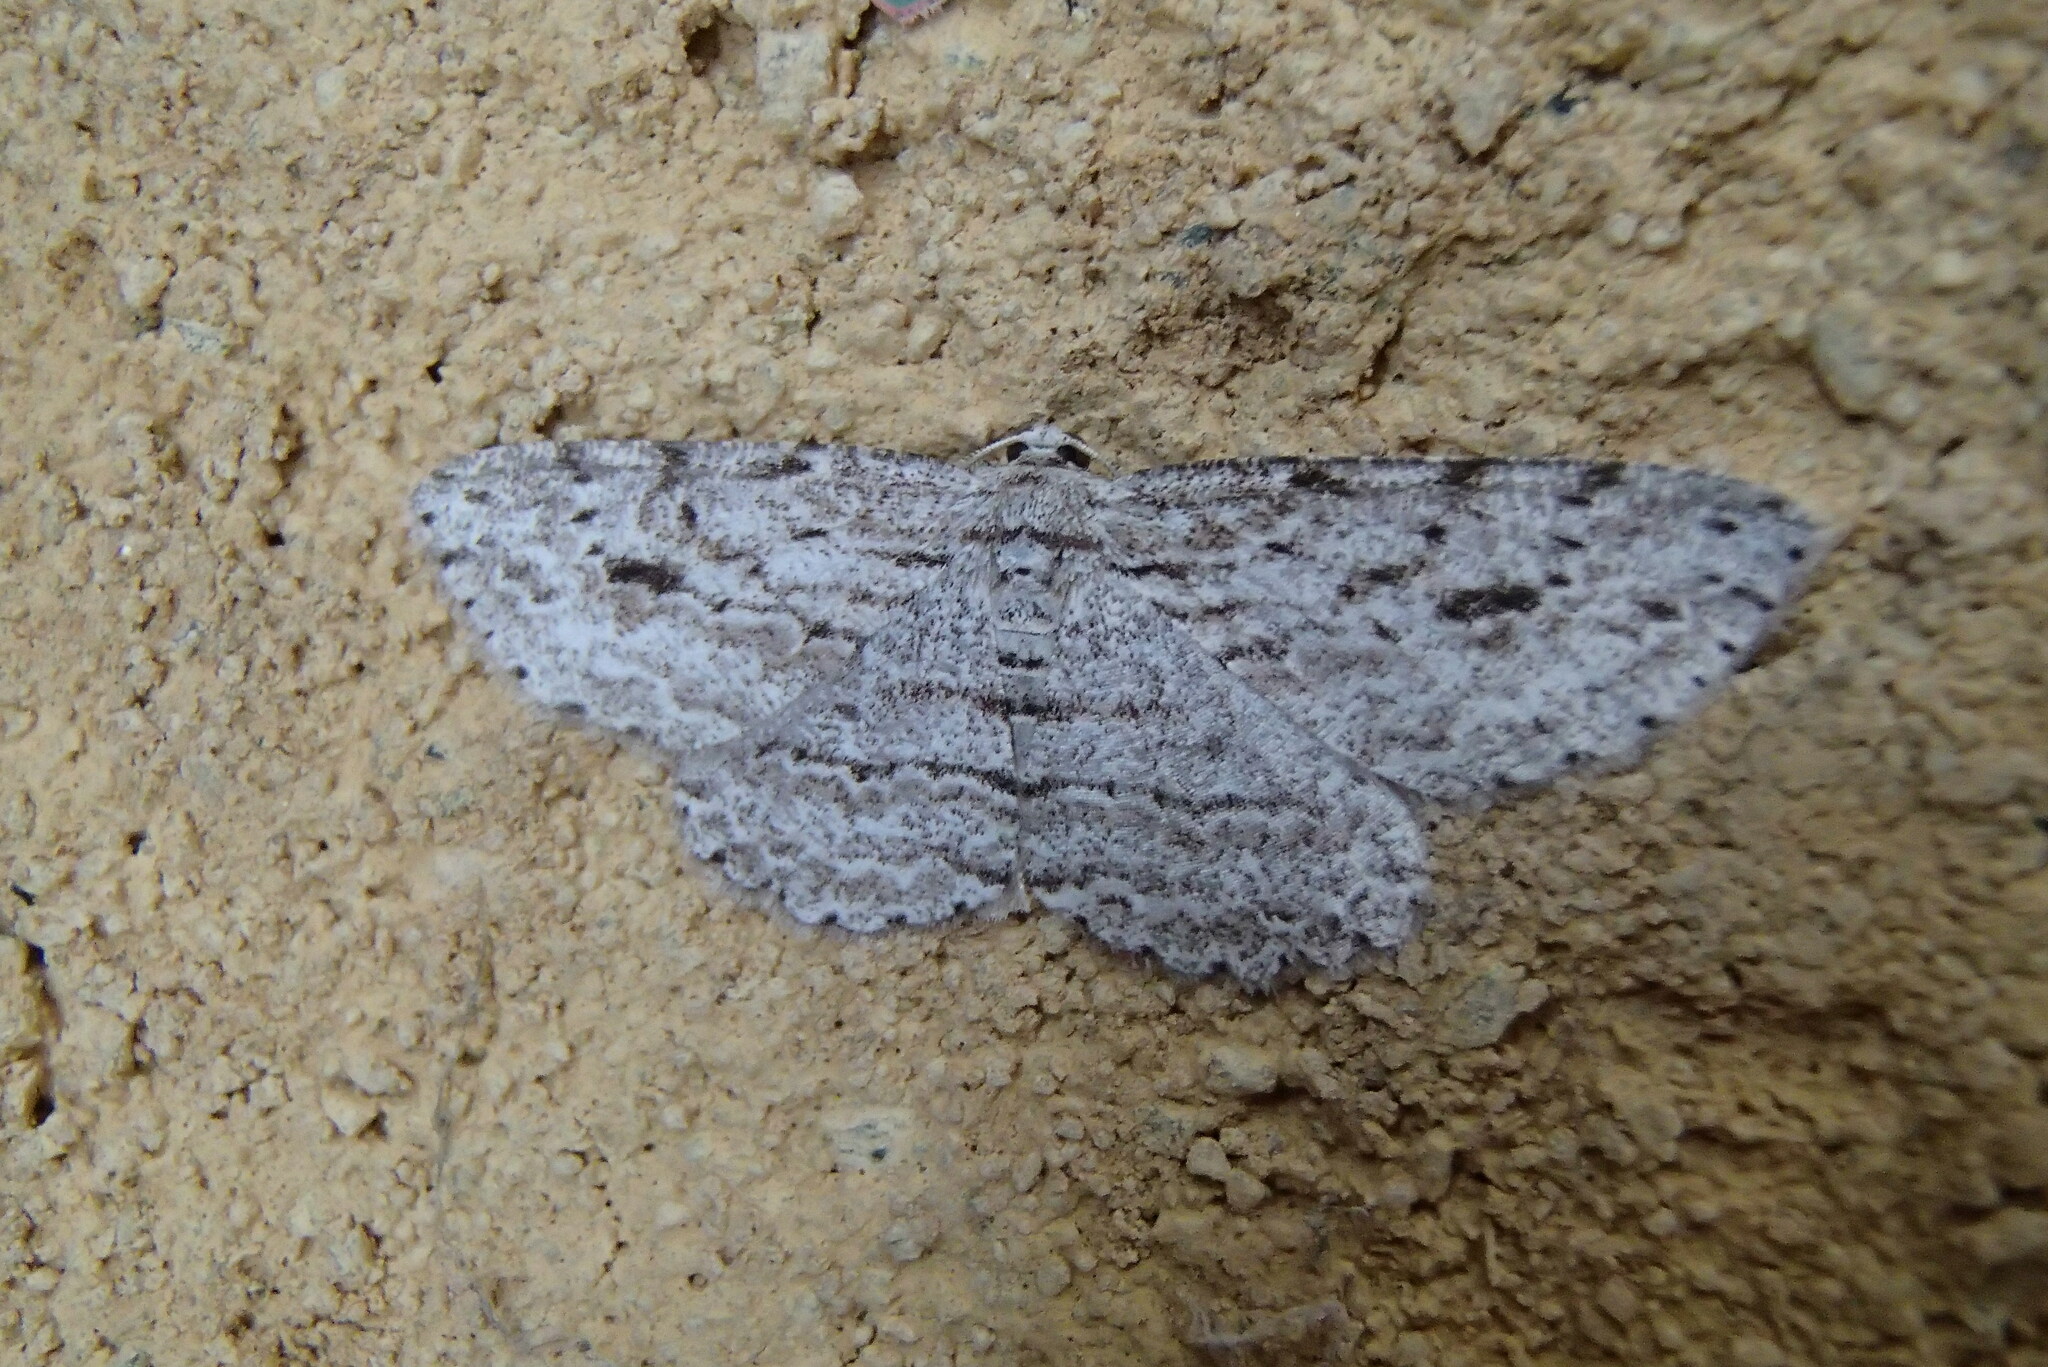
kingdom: Animalia
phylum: Arthropoda
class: Insecta
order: Lepidoptera
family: Geometridae
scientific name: Geometridae
